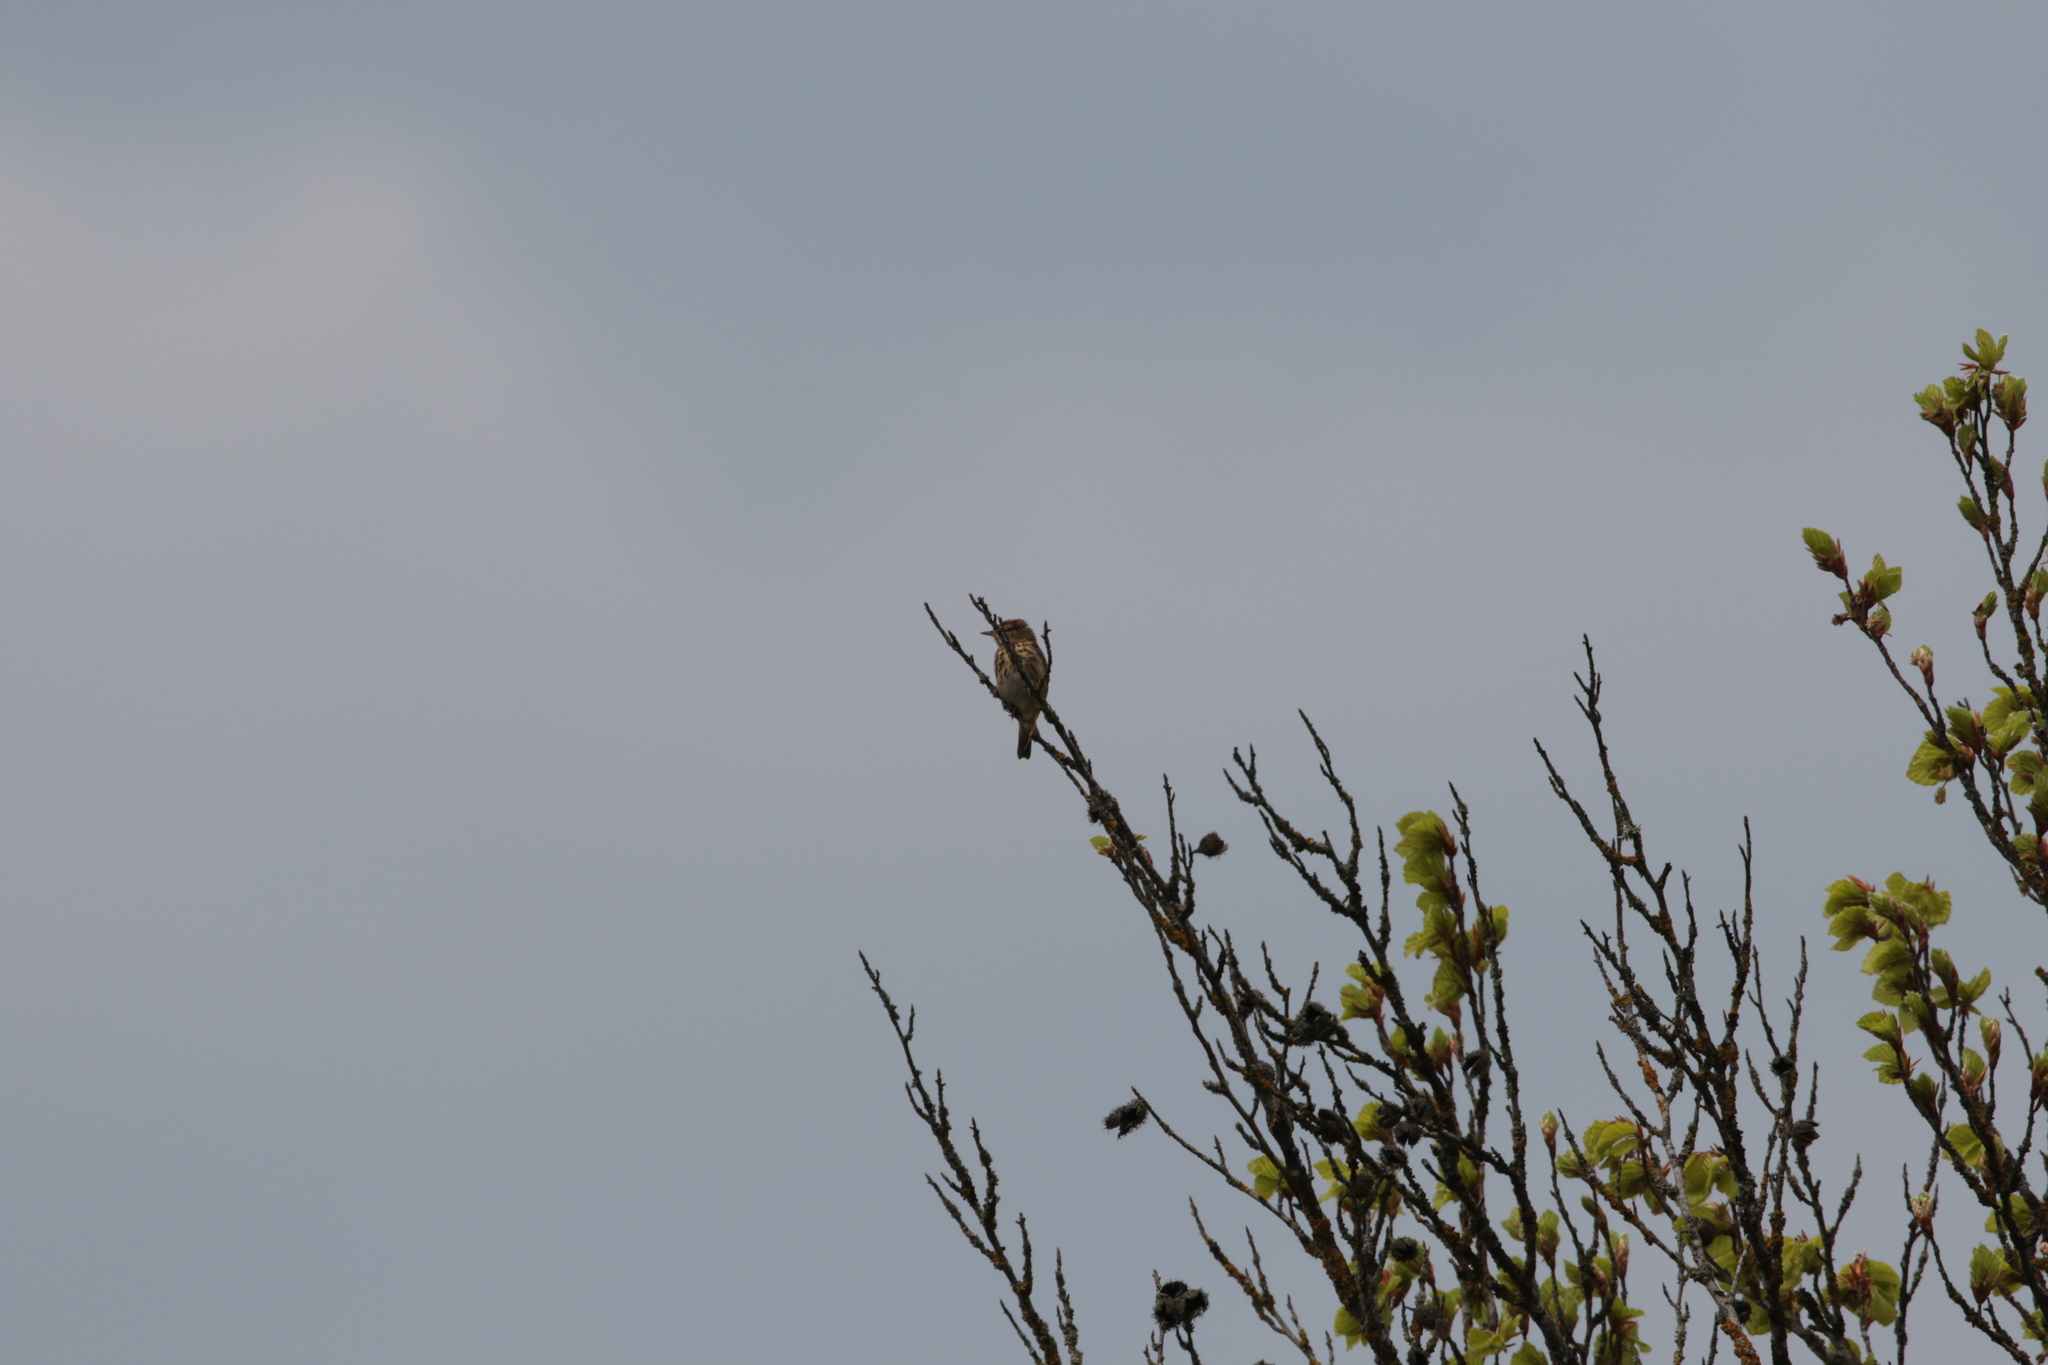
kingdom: Animalia
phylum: Chordata
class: Aves
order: Passeriformes
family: Motacillidae
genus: Anthus
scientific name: Anthus trivialis
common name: Tree pipit
